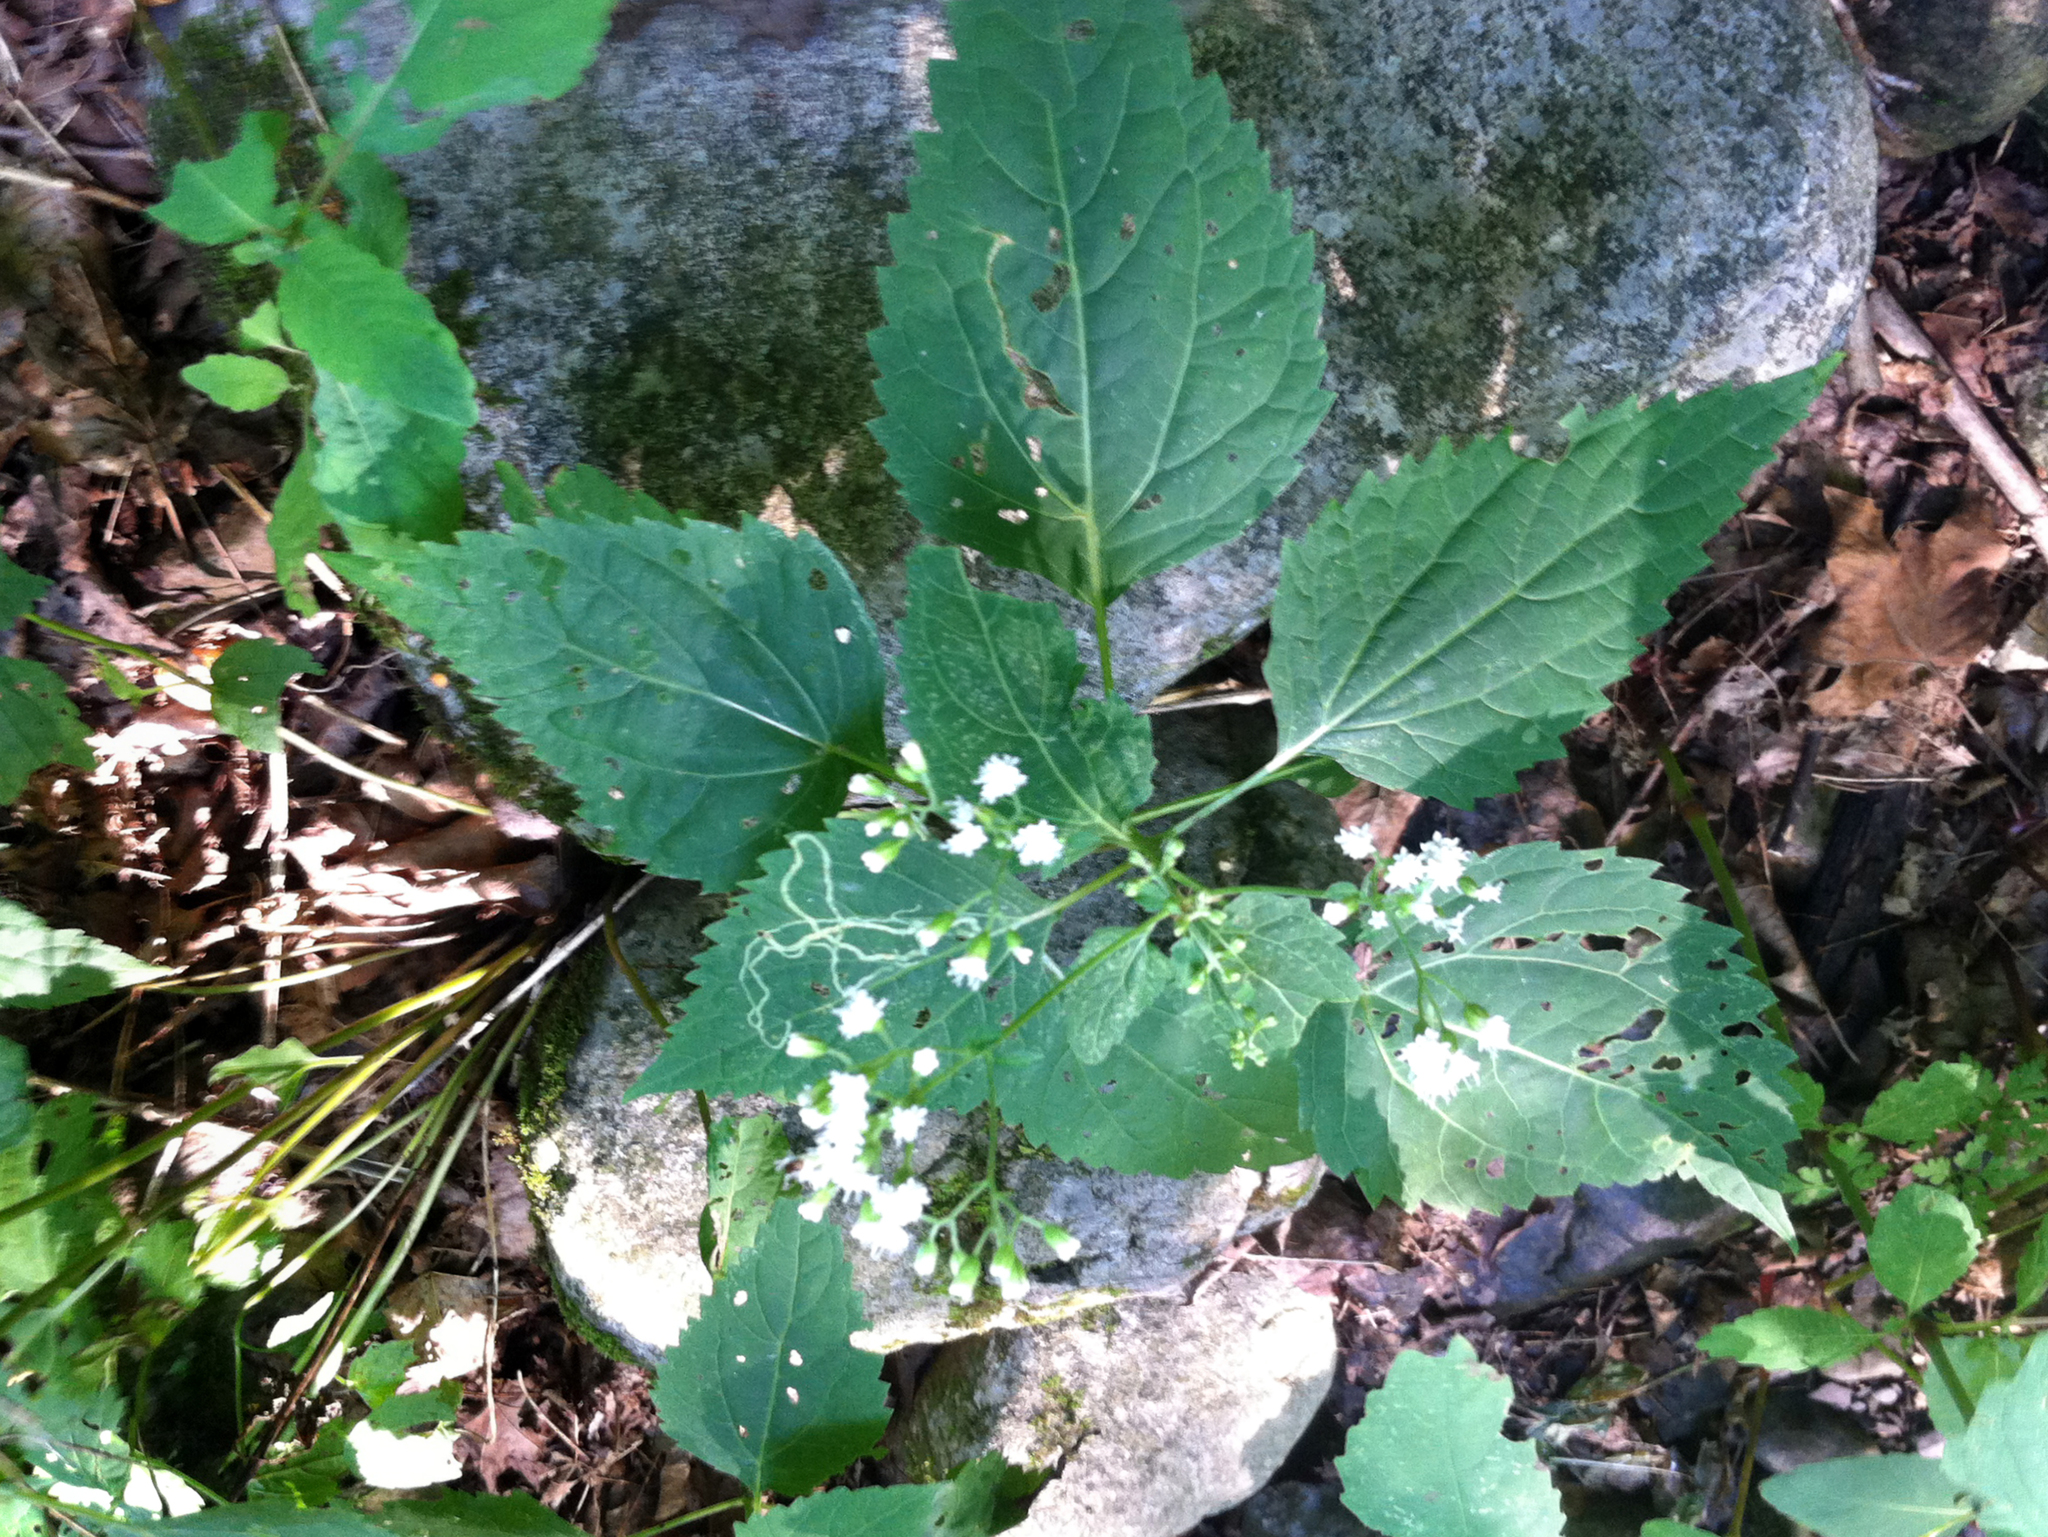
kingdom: Plantae
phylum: Tracheophyta
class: Magnoliopsida
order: Asterales
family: Asteraceae
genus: Ageratina
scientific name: Ageratina altissima
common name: White snakeroot
